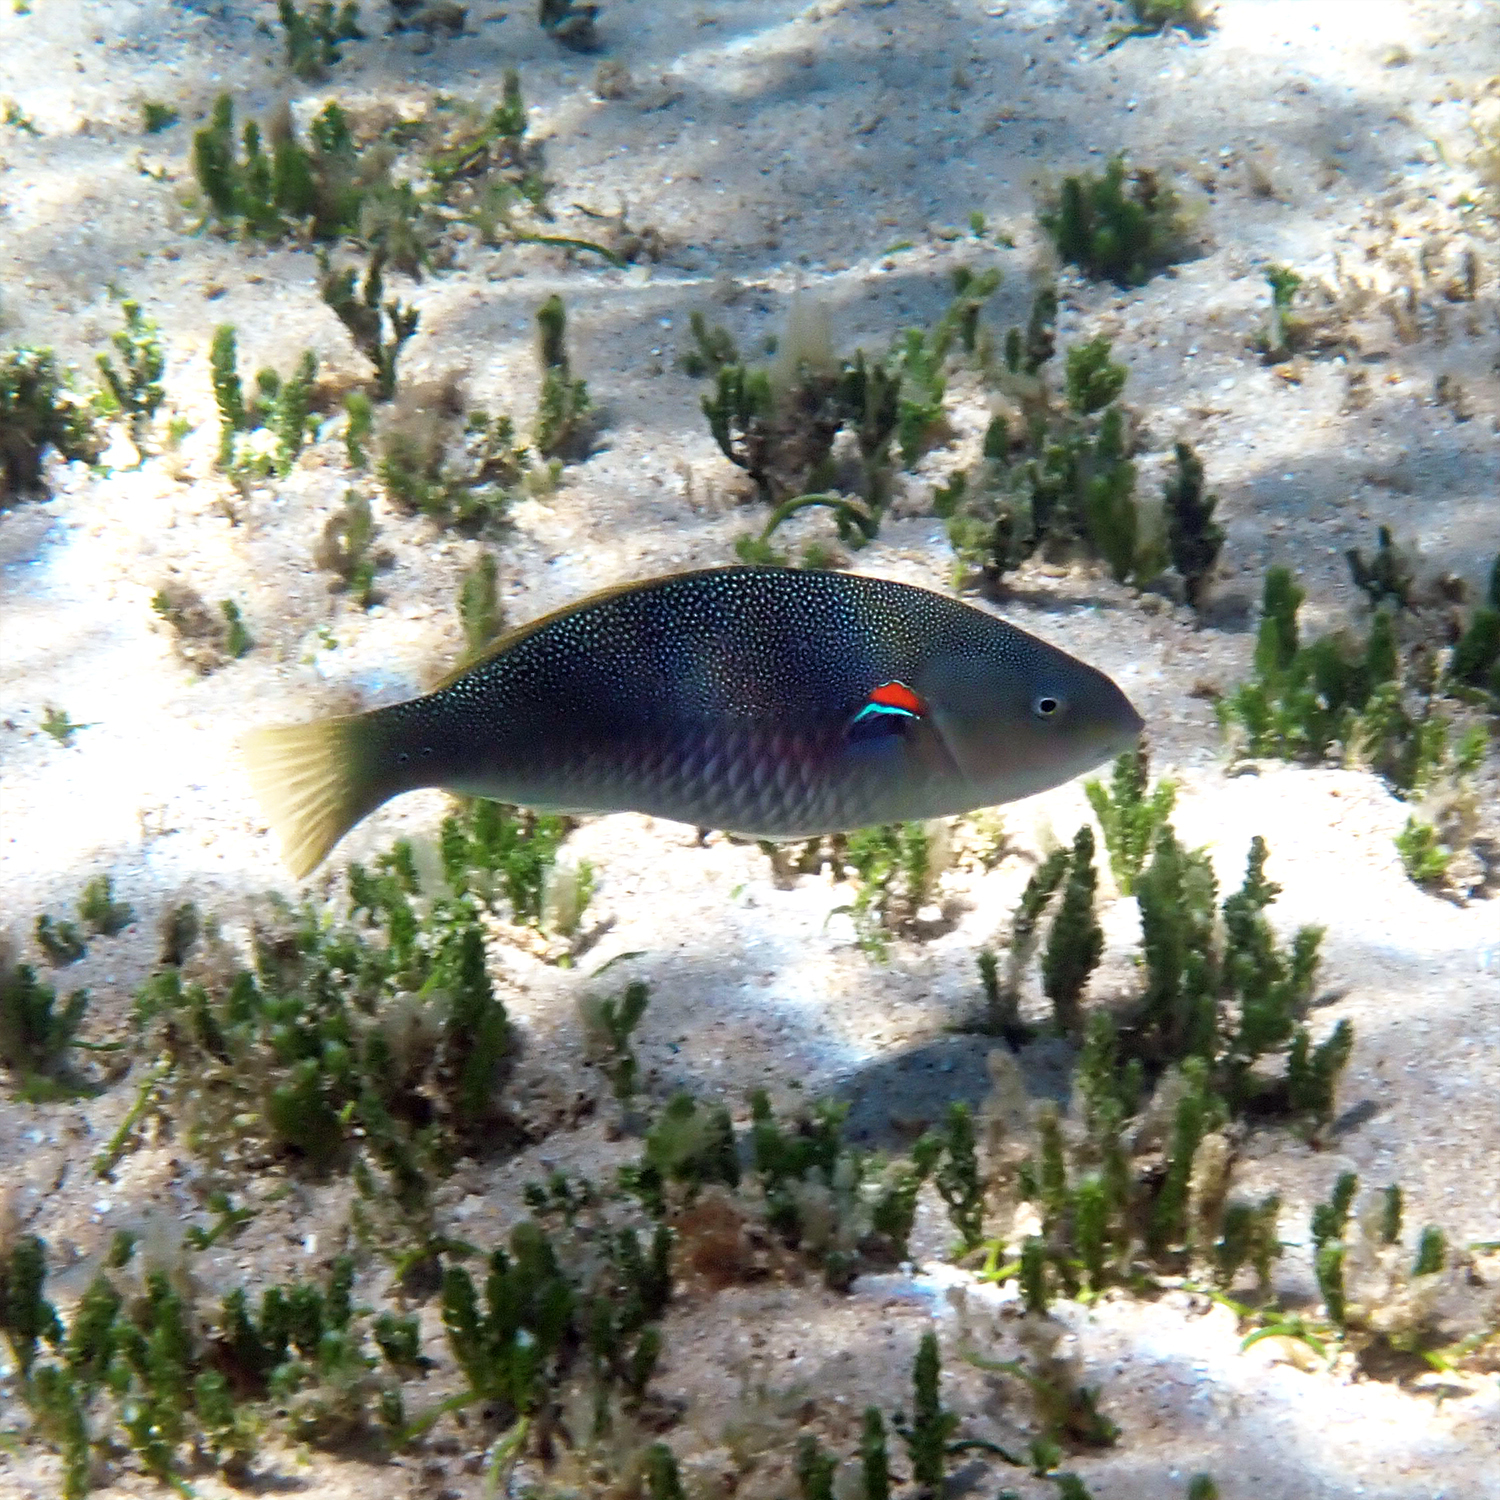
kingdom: Animalia
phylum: Chordata
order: Perciformes
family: Labridae
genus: Stethojulis
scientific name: Stethojulis bandanensis
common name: Red shoulder wrasse
